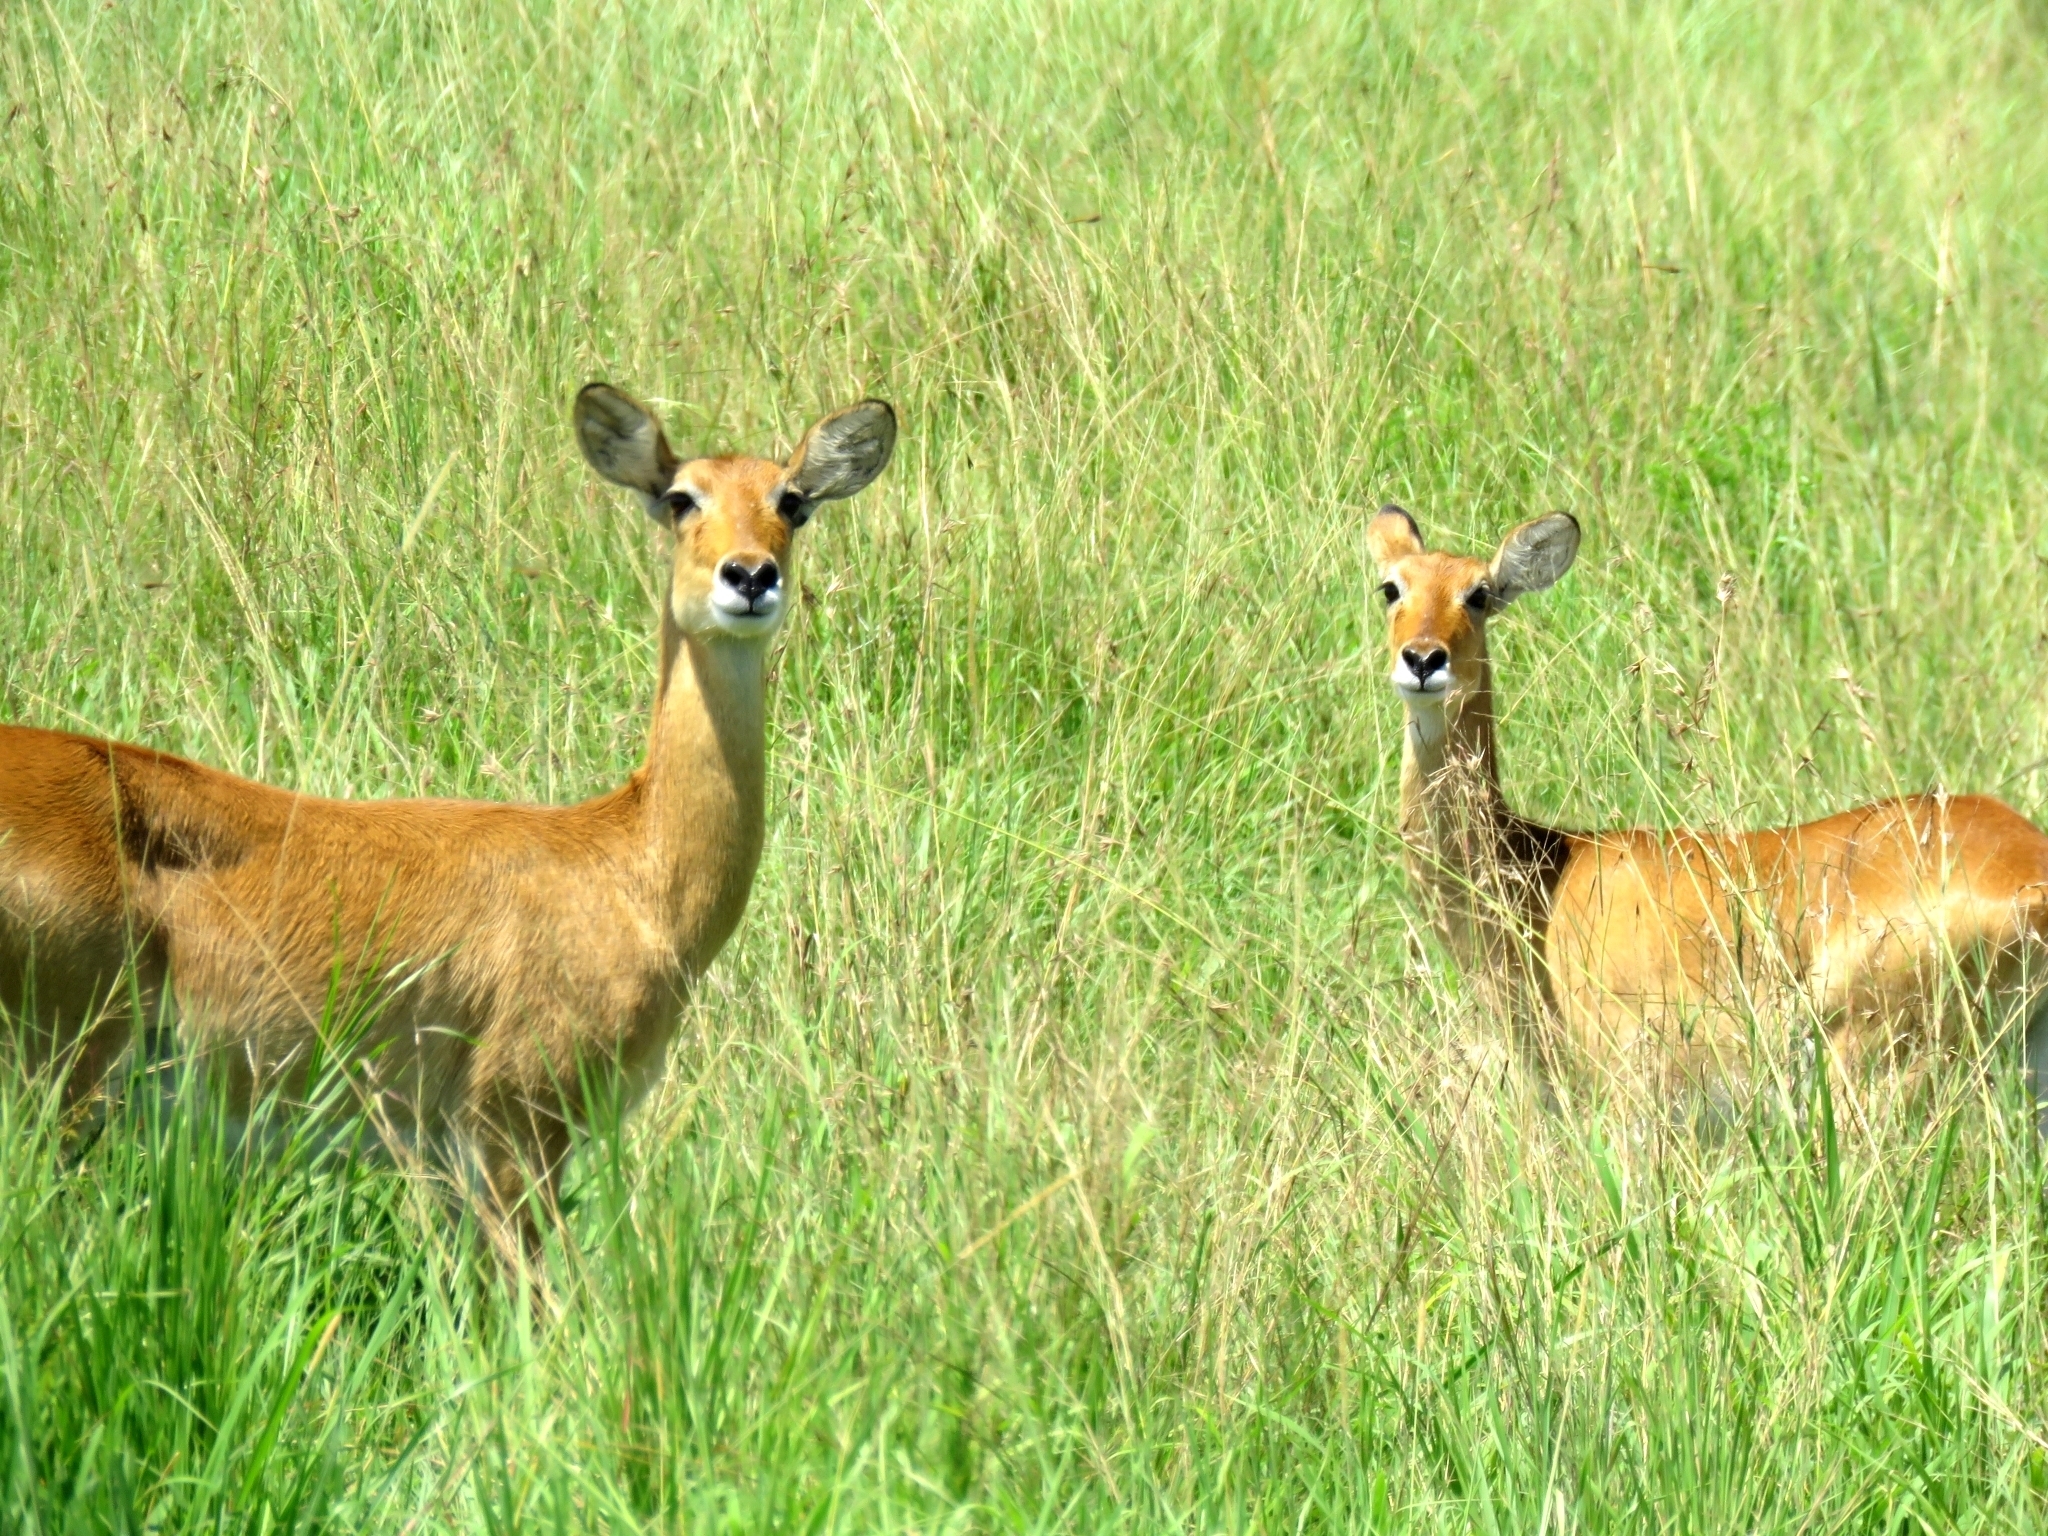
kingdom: Animalia
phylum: Chordata
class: Mammalia
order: Artiodactyla
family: Bovidae
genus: Kobus
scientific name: Kobus kob
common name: Kob
